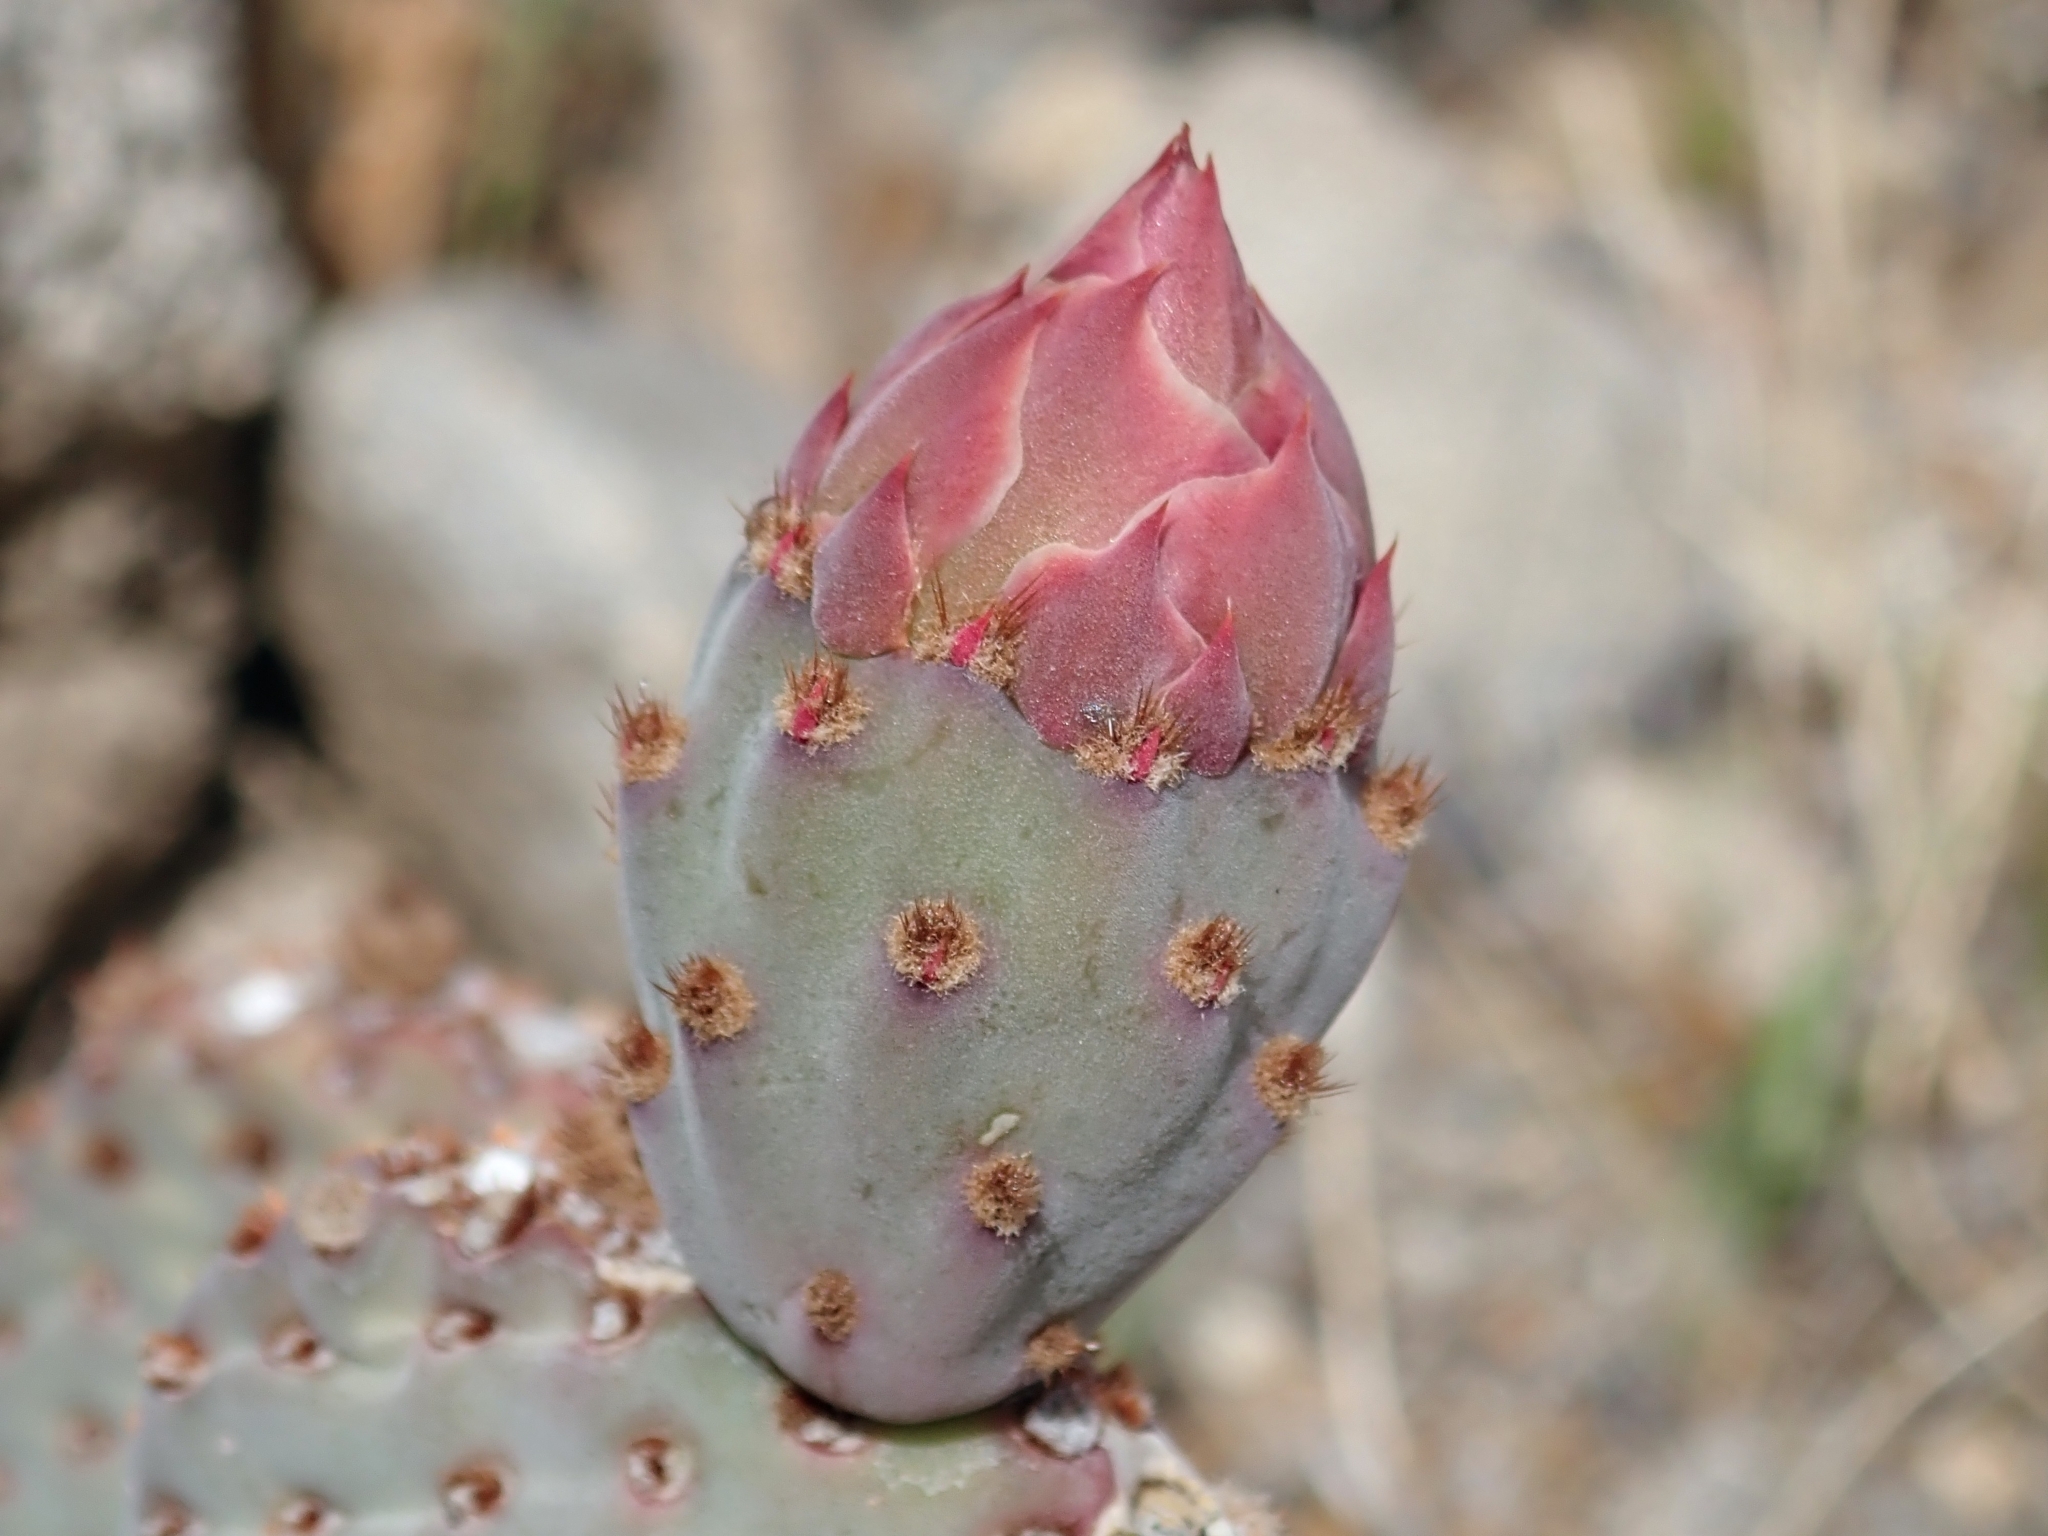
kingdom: Plantae
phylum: Tracheophyta
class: Magnoliopsida
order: Caryophyllales
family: Cactaceae
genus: Opuntia
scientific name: Opuntia basilaris
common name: Beavertail prickly-pear
